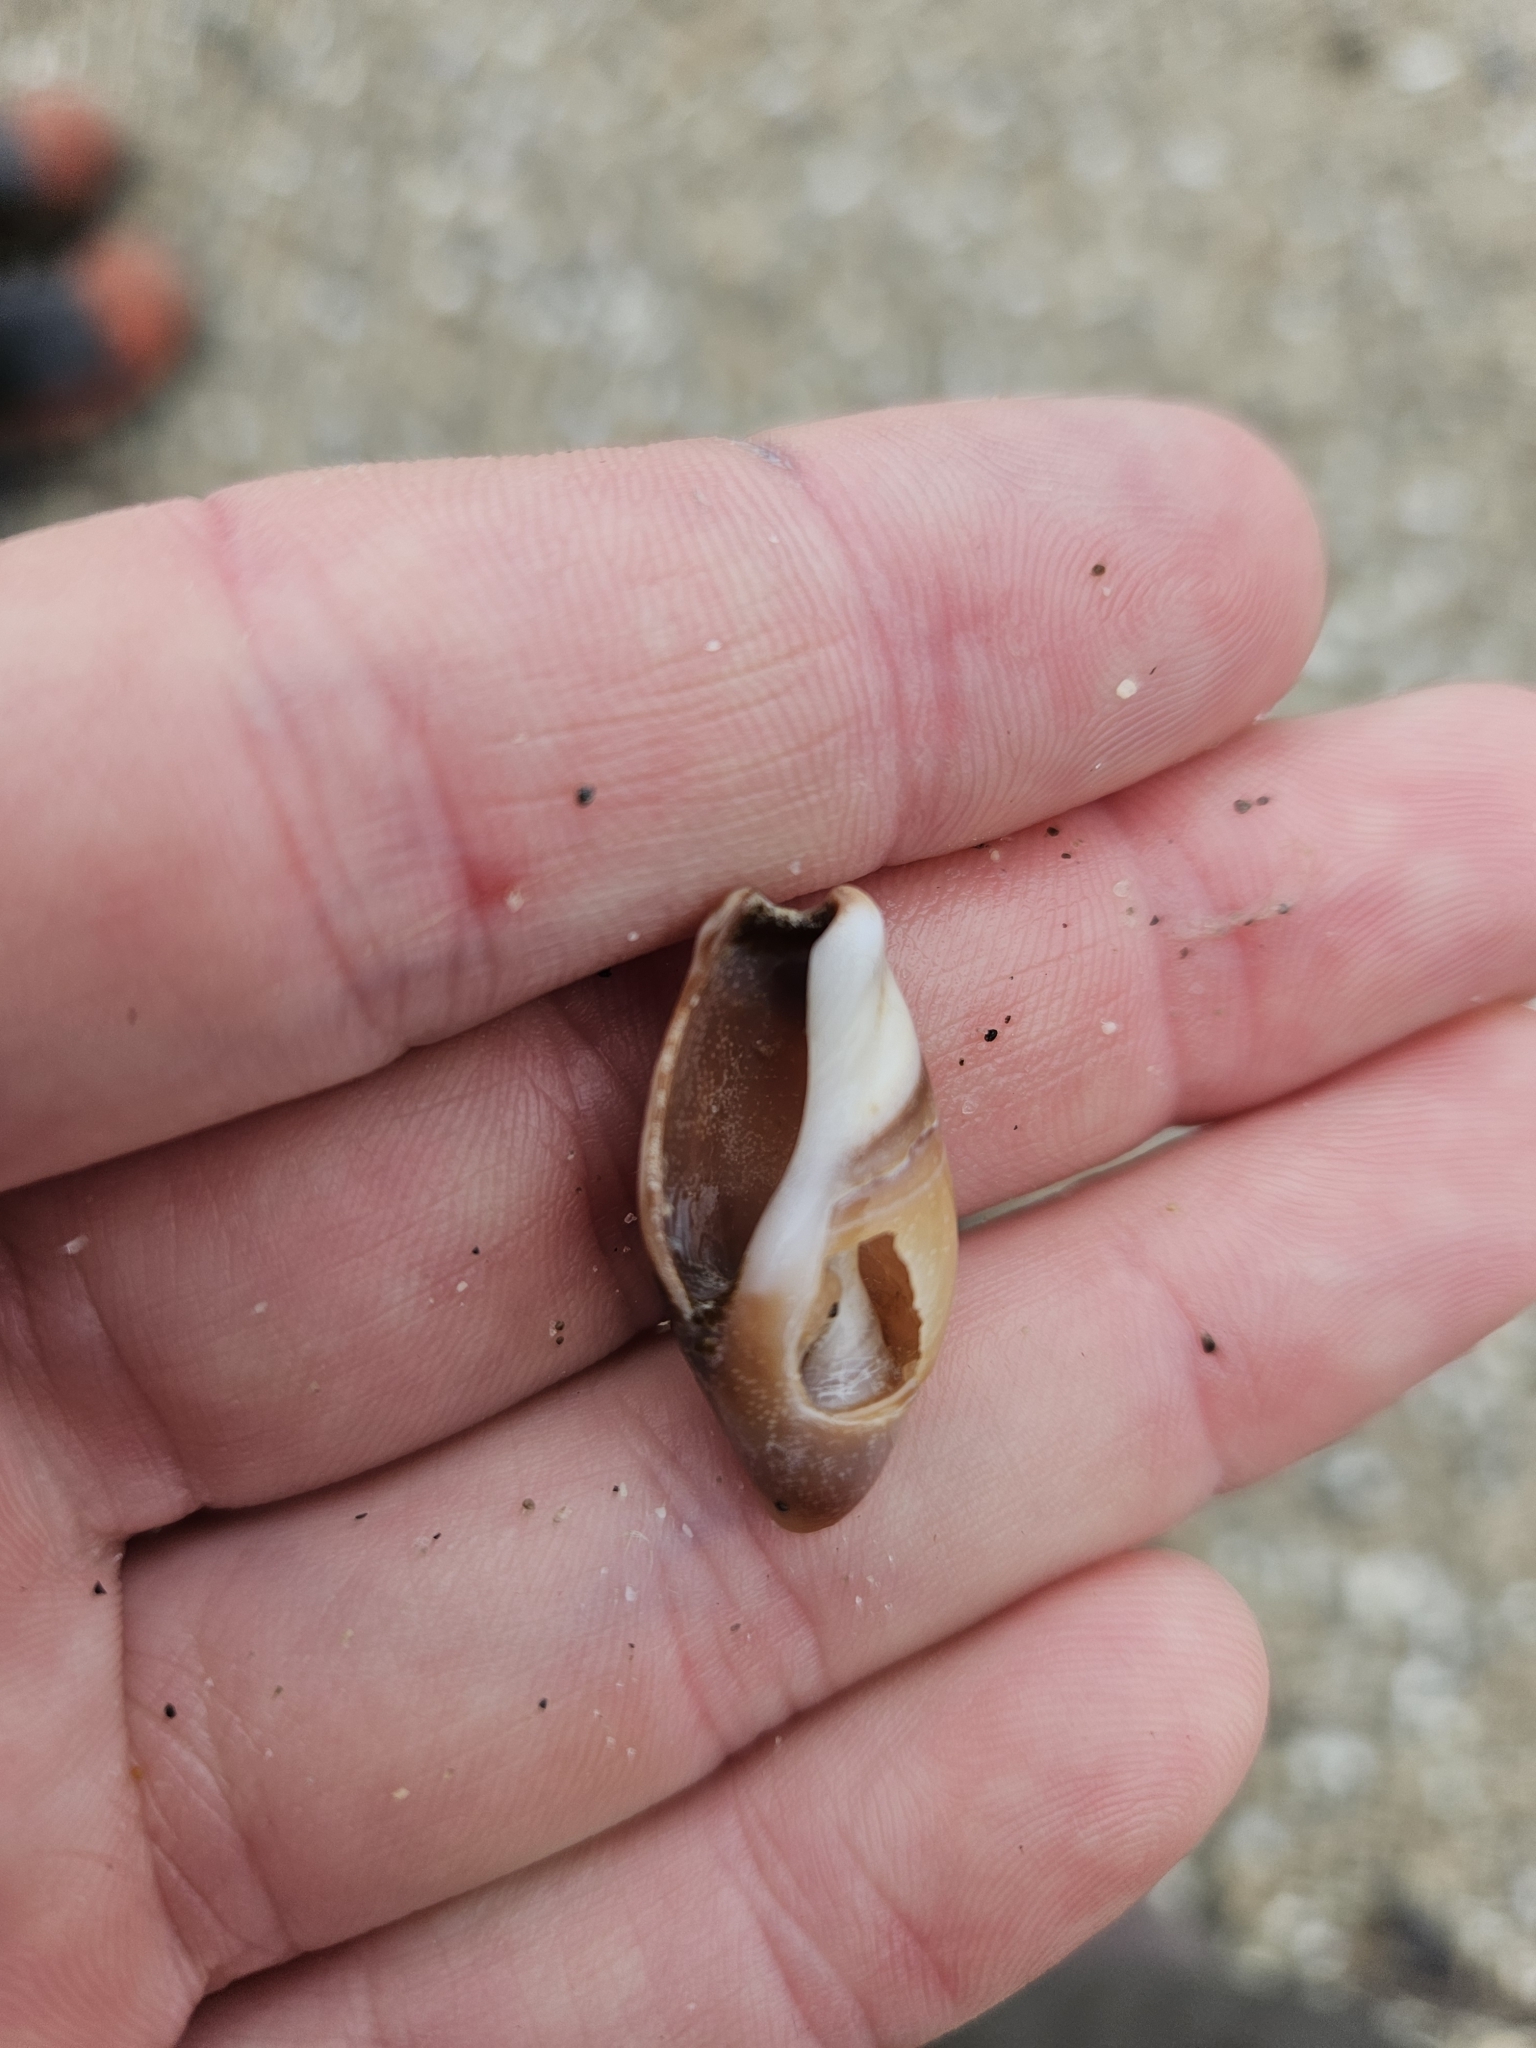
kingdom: Animalia
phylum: Mollusca
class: Gastropoda
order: Neogastropoda
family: Ancillariidae
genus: Amalda
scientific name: Amalda australis
